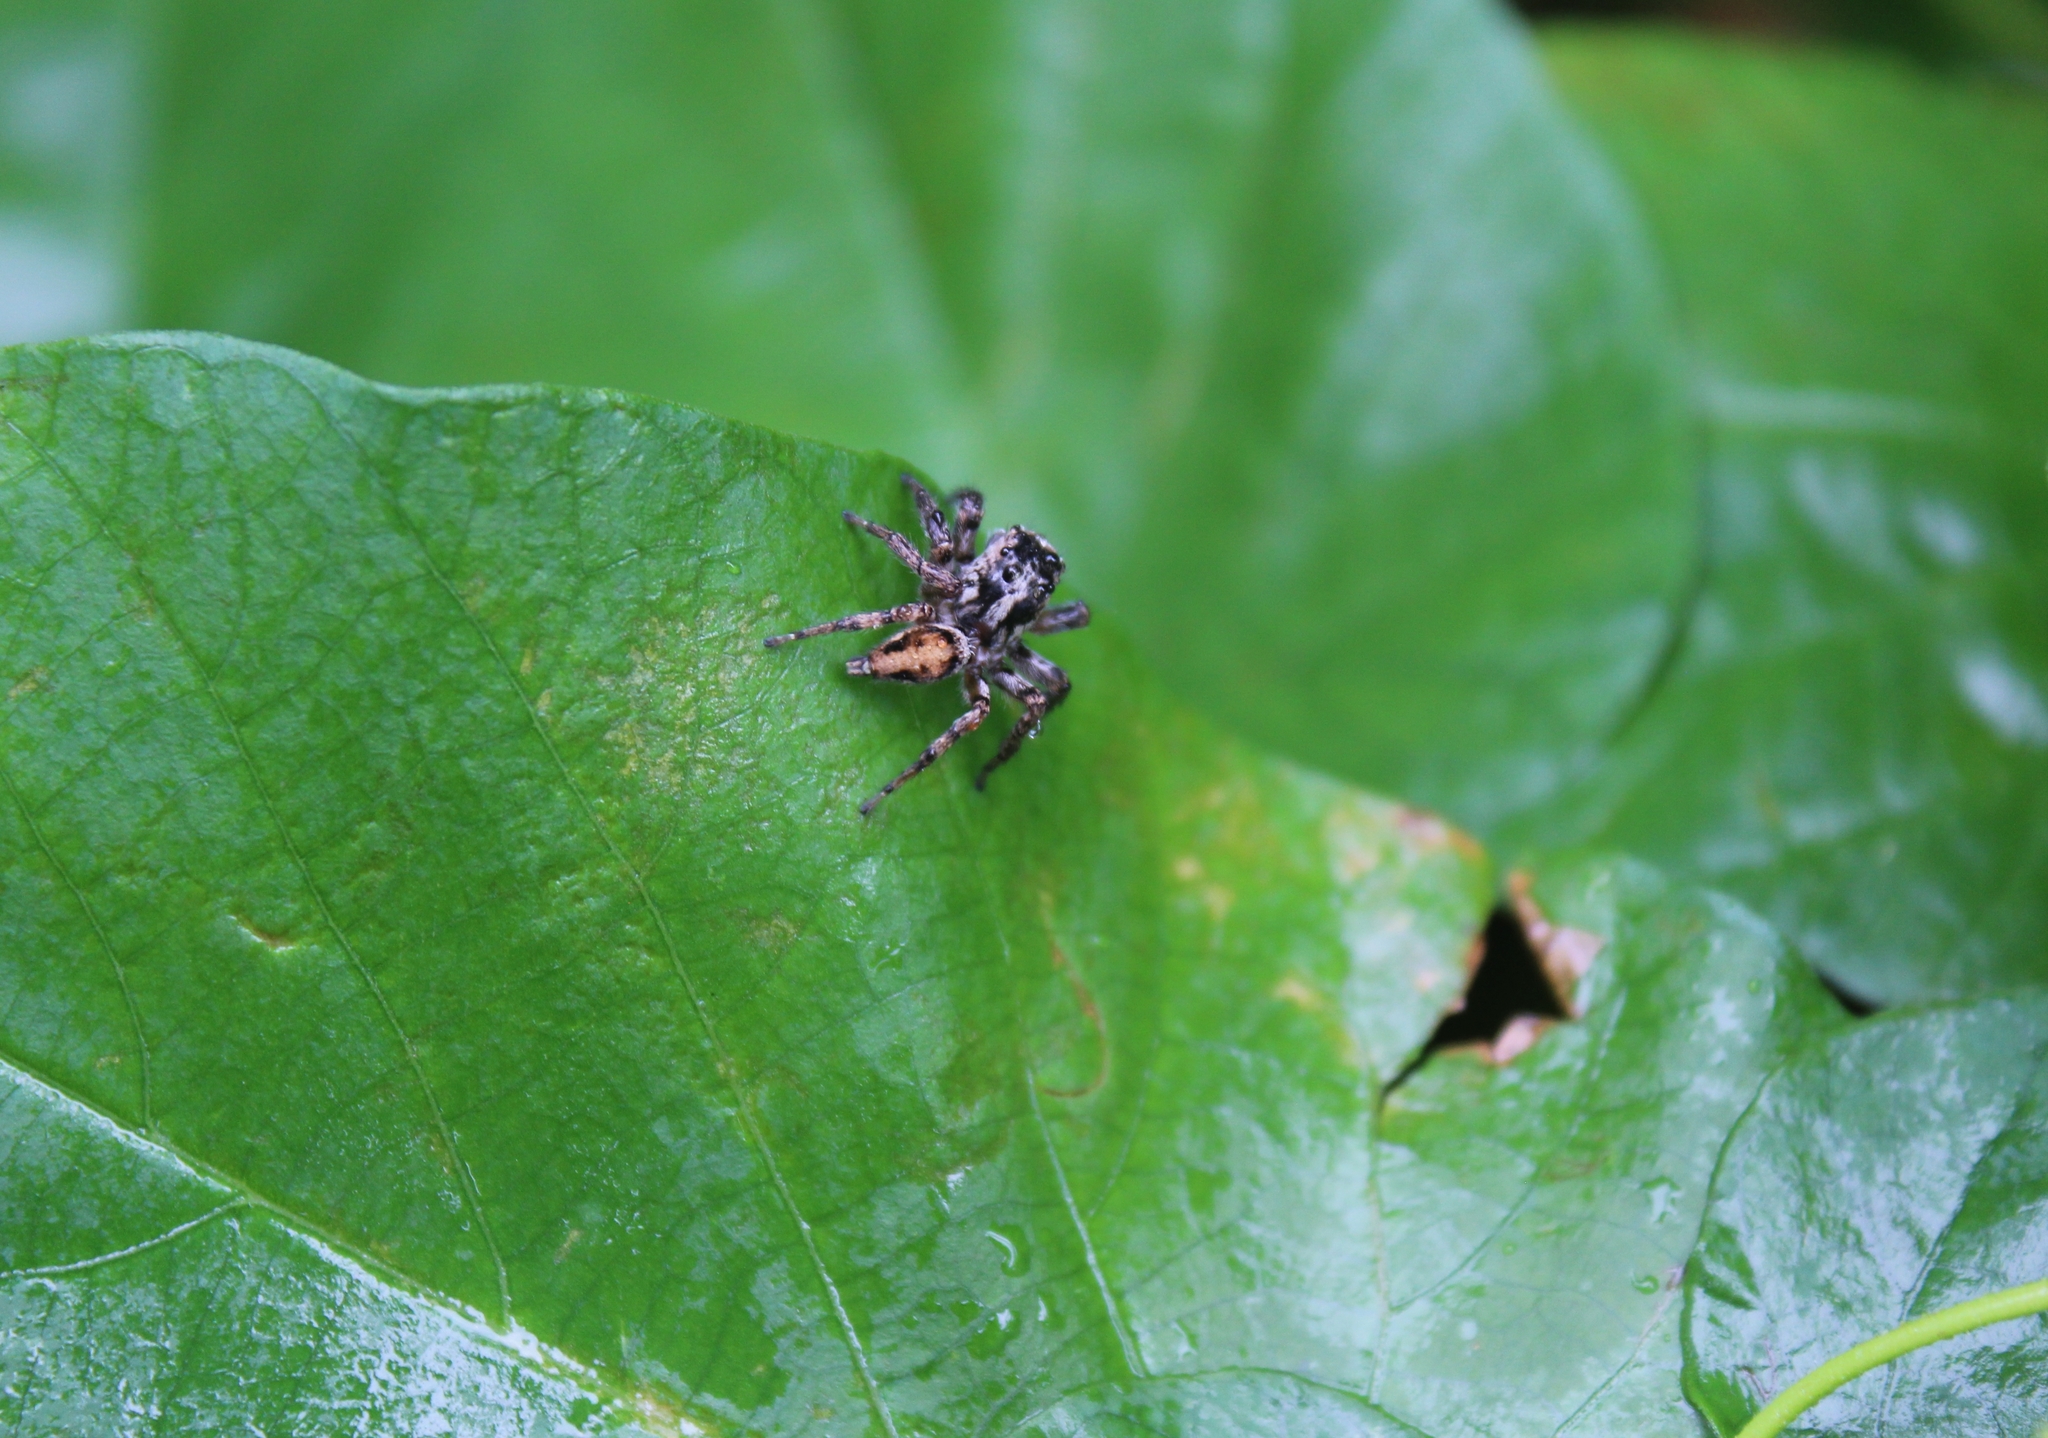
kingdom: Animalia
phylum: Arthropoda
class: Arachnida
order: Araneae
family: Salticidae
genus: Tarkas
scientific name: Tarkas maculatipes
